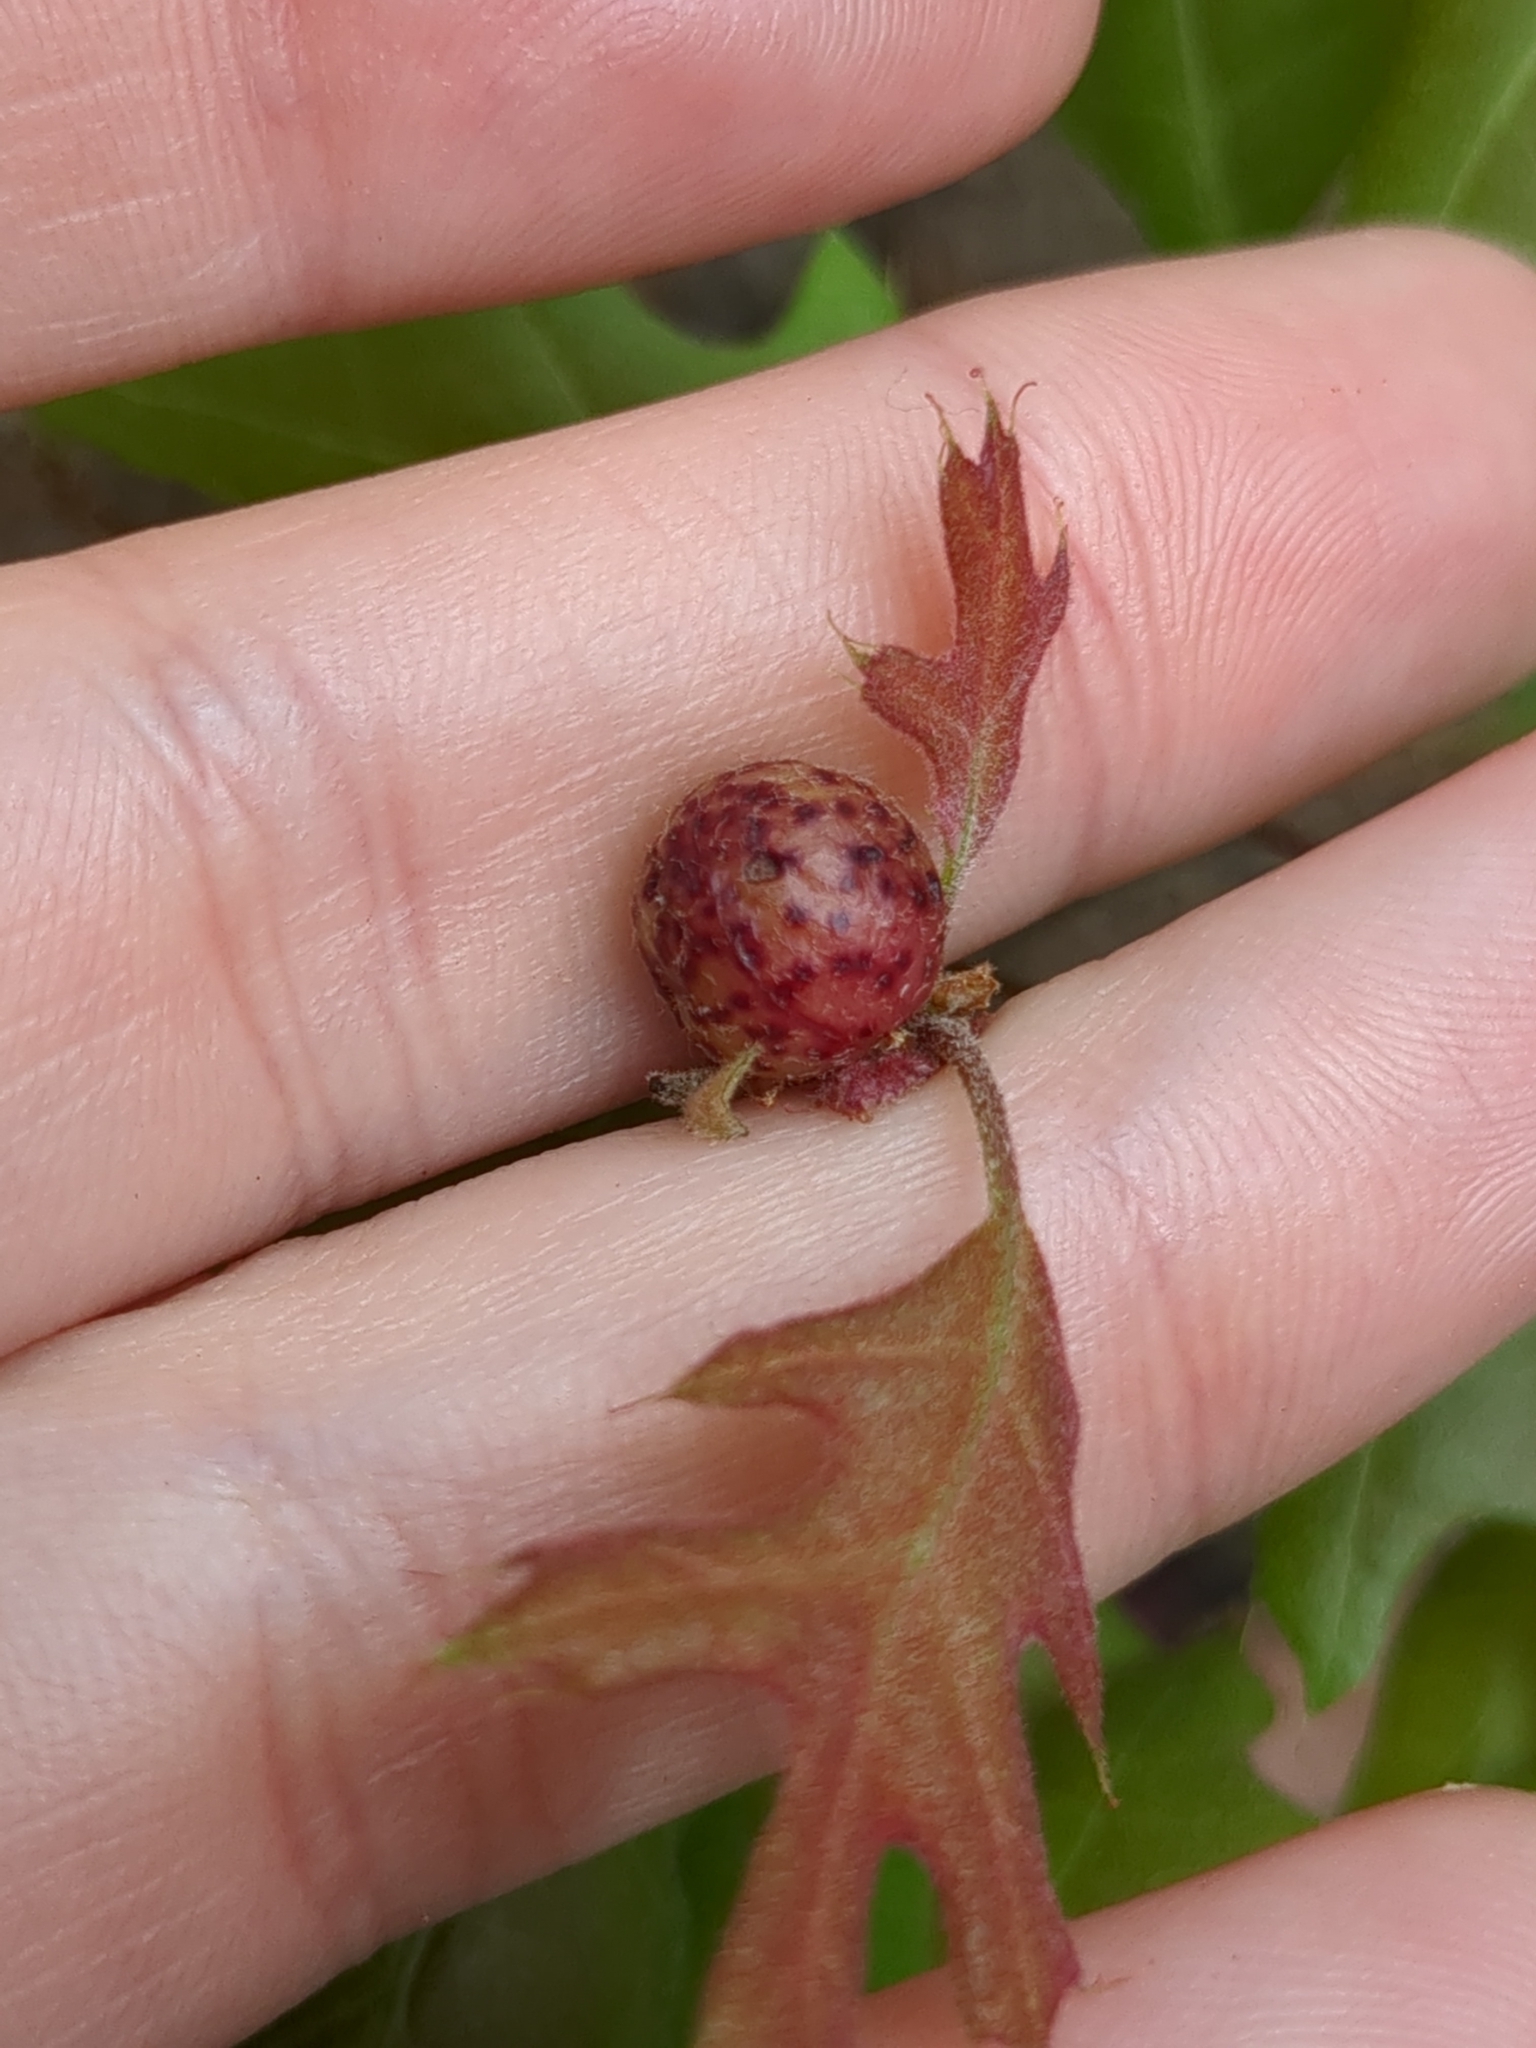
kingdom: Animalia
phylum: Arthropoda
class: Insecta
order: Hymenoptera
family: Cynipidae
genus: Amphibolips
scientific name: Amphibolips
